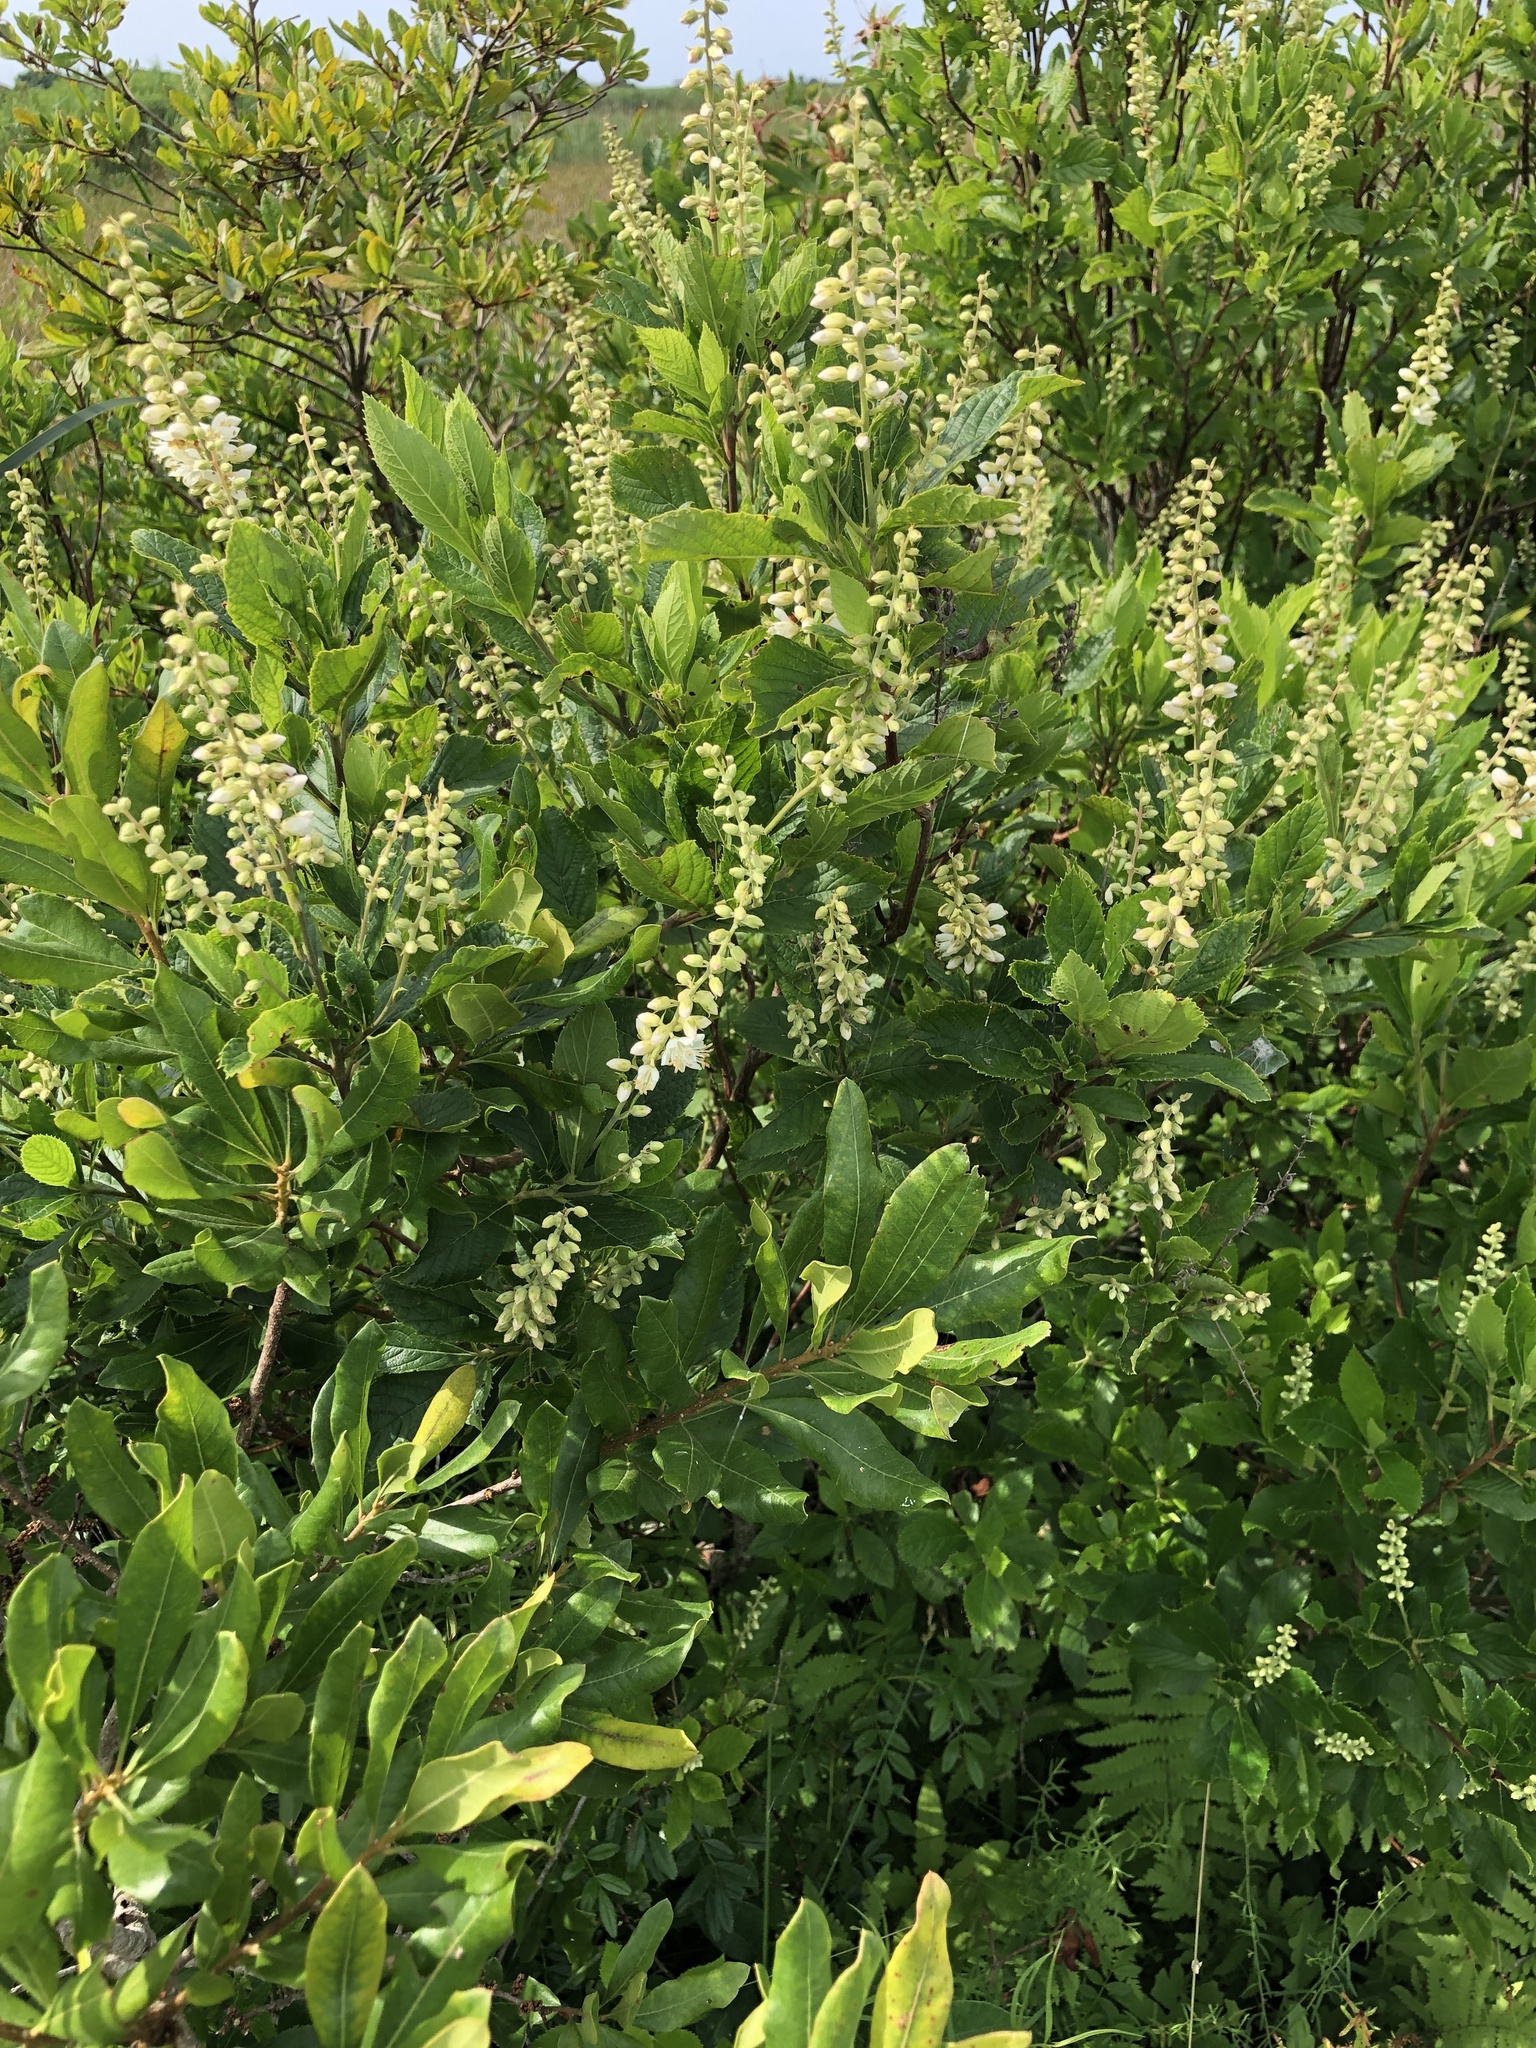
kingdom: Plantae
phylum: Tracheophyta
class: Magnoliopsida
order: Ericales
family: Clethraceae
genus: Clethra
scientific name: Clethra alnifolia
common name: Sweet pepperbush
